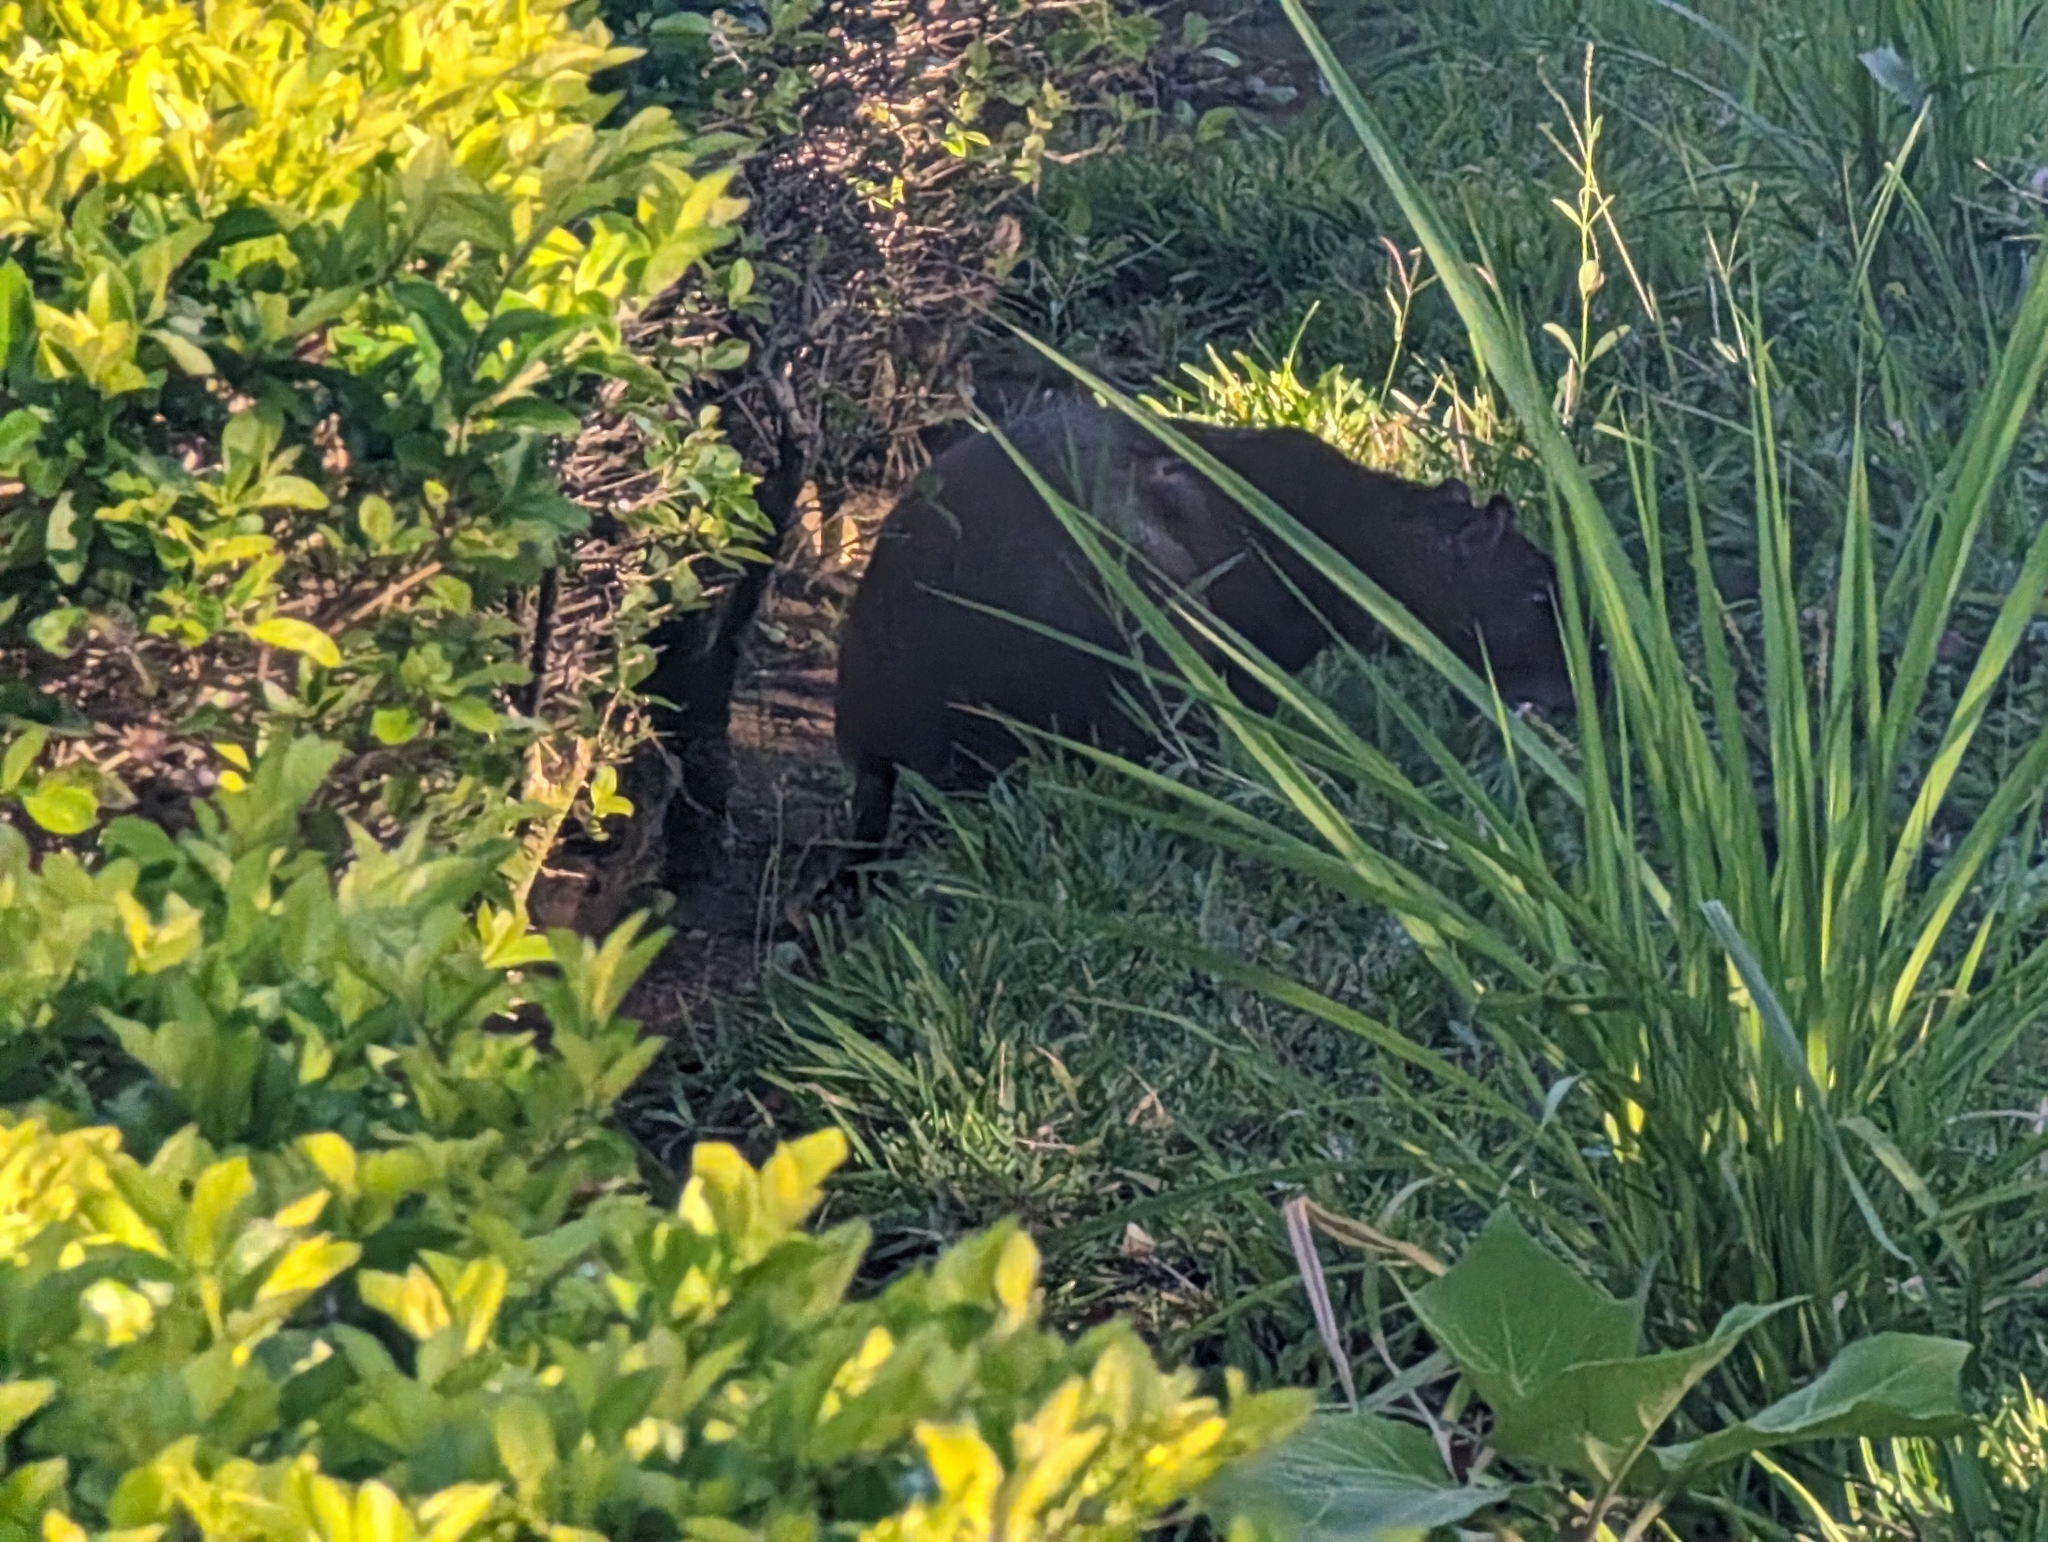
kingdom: Animalia
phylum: Chordata
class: Mammalia
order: Rodentia
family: Dasyproctidae
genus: Dasyprocta
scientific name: Dasyprocta punctata
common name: Central american agouti
